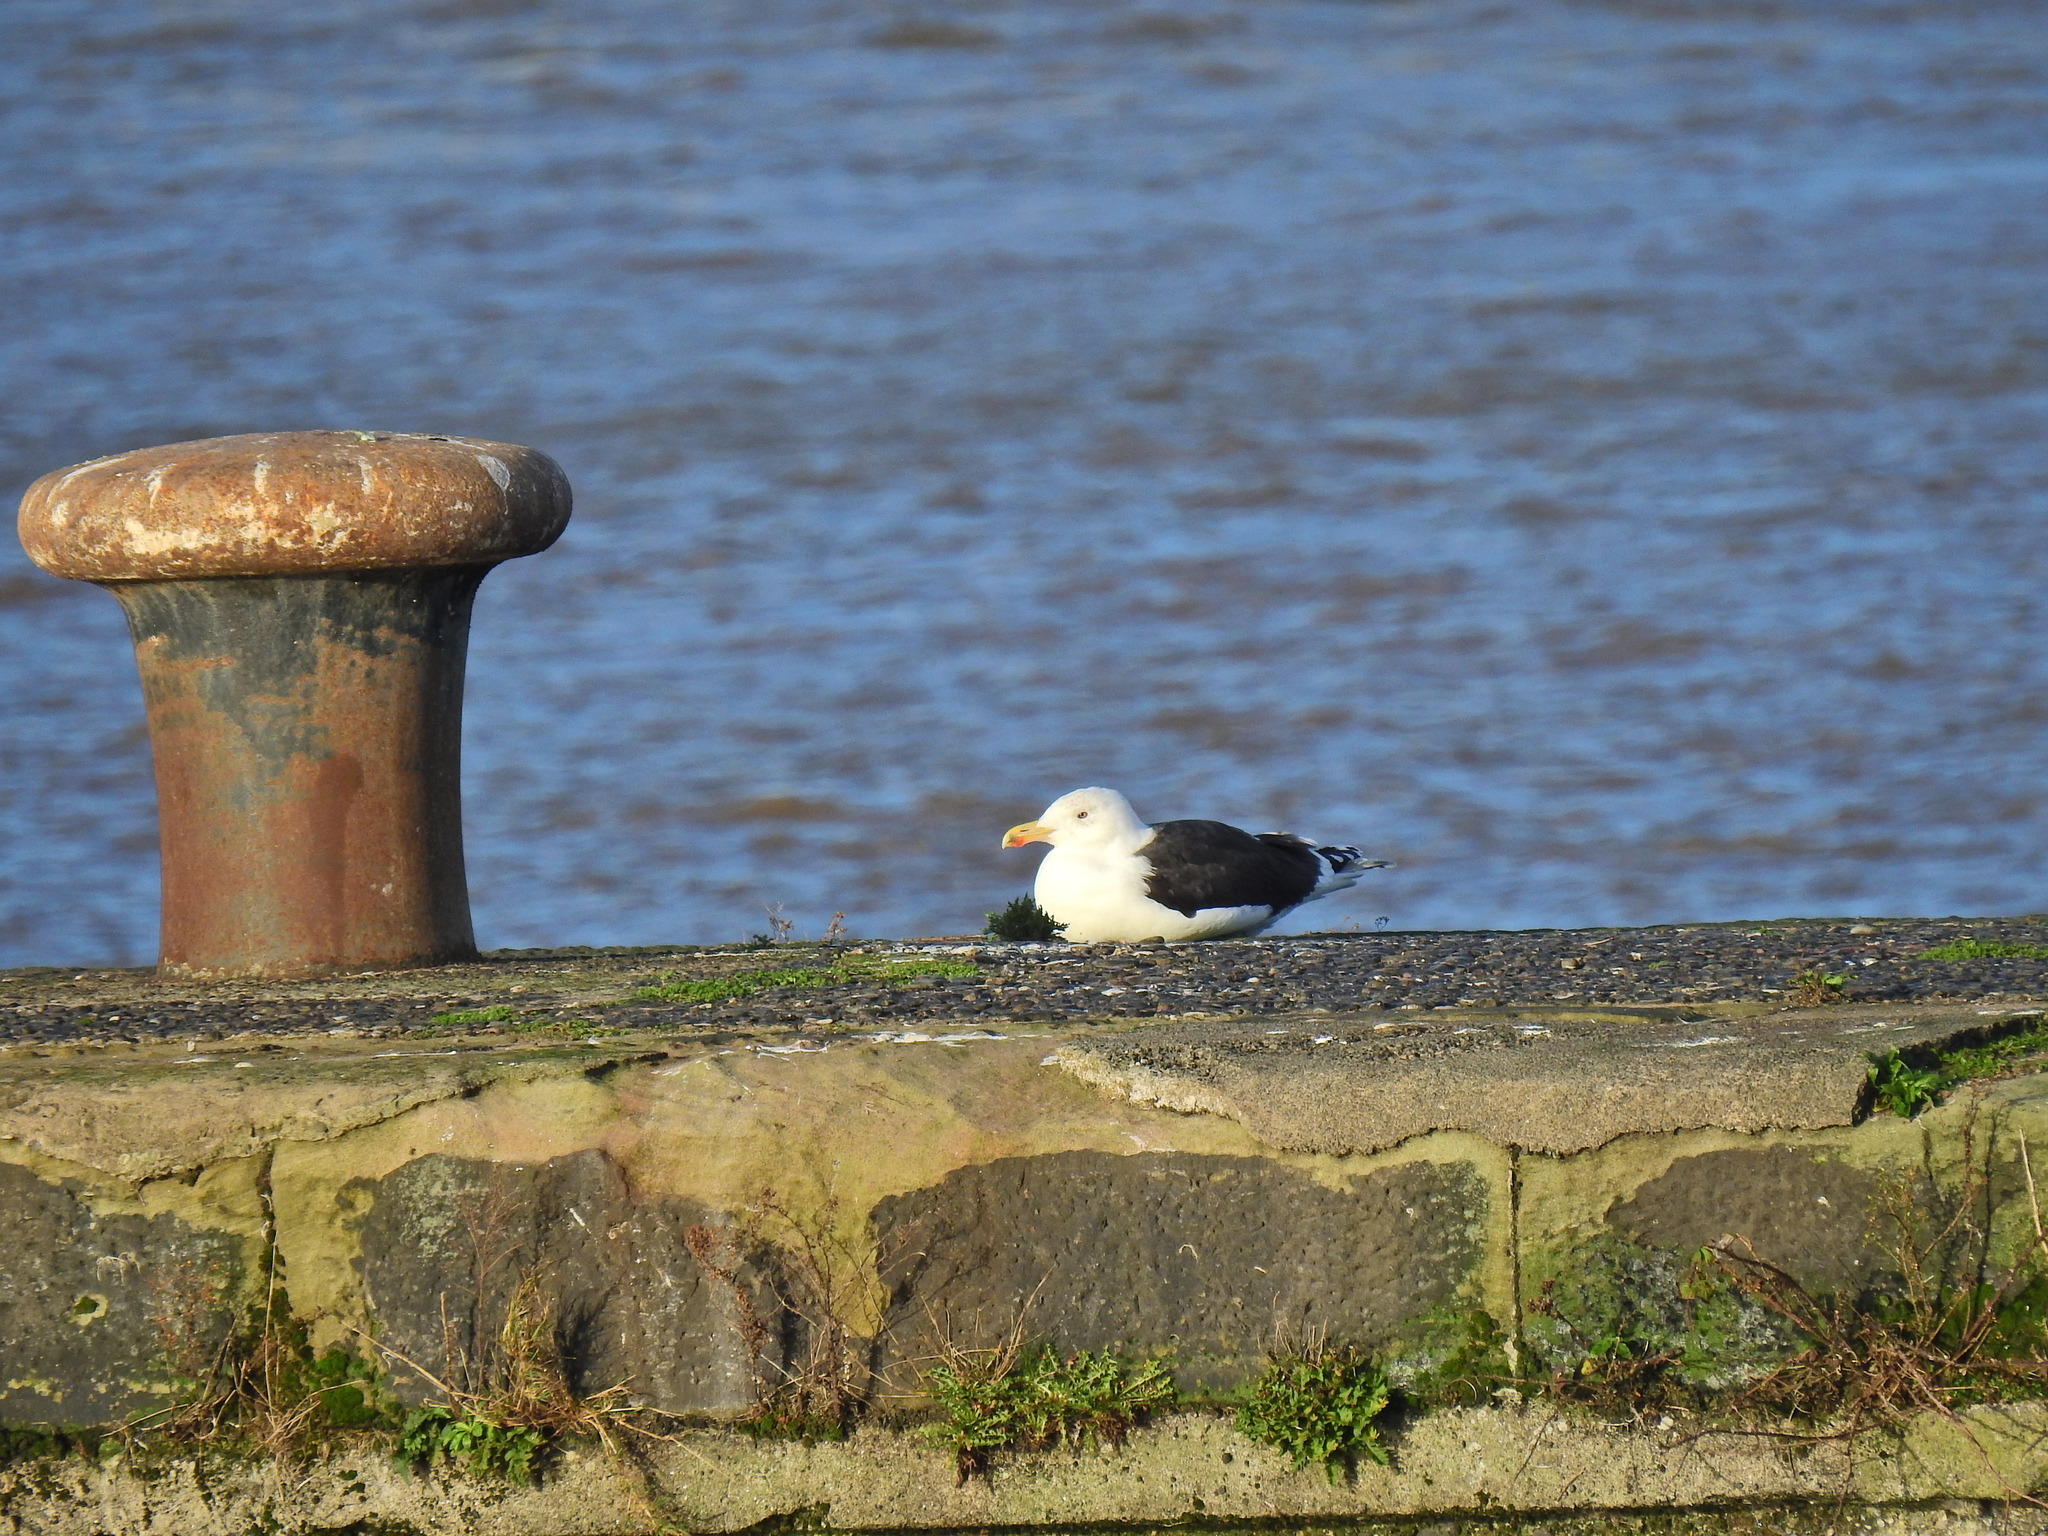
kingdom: Animalia
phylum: Chordata
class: Aves
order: Charadriiformes
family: Laridae
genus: Larus
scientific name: Larus marinus
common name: Great black-backed gull
